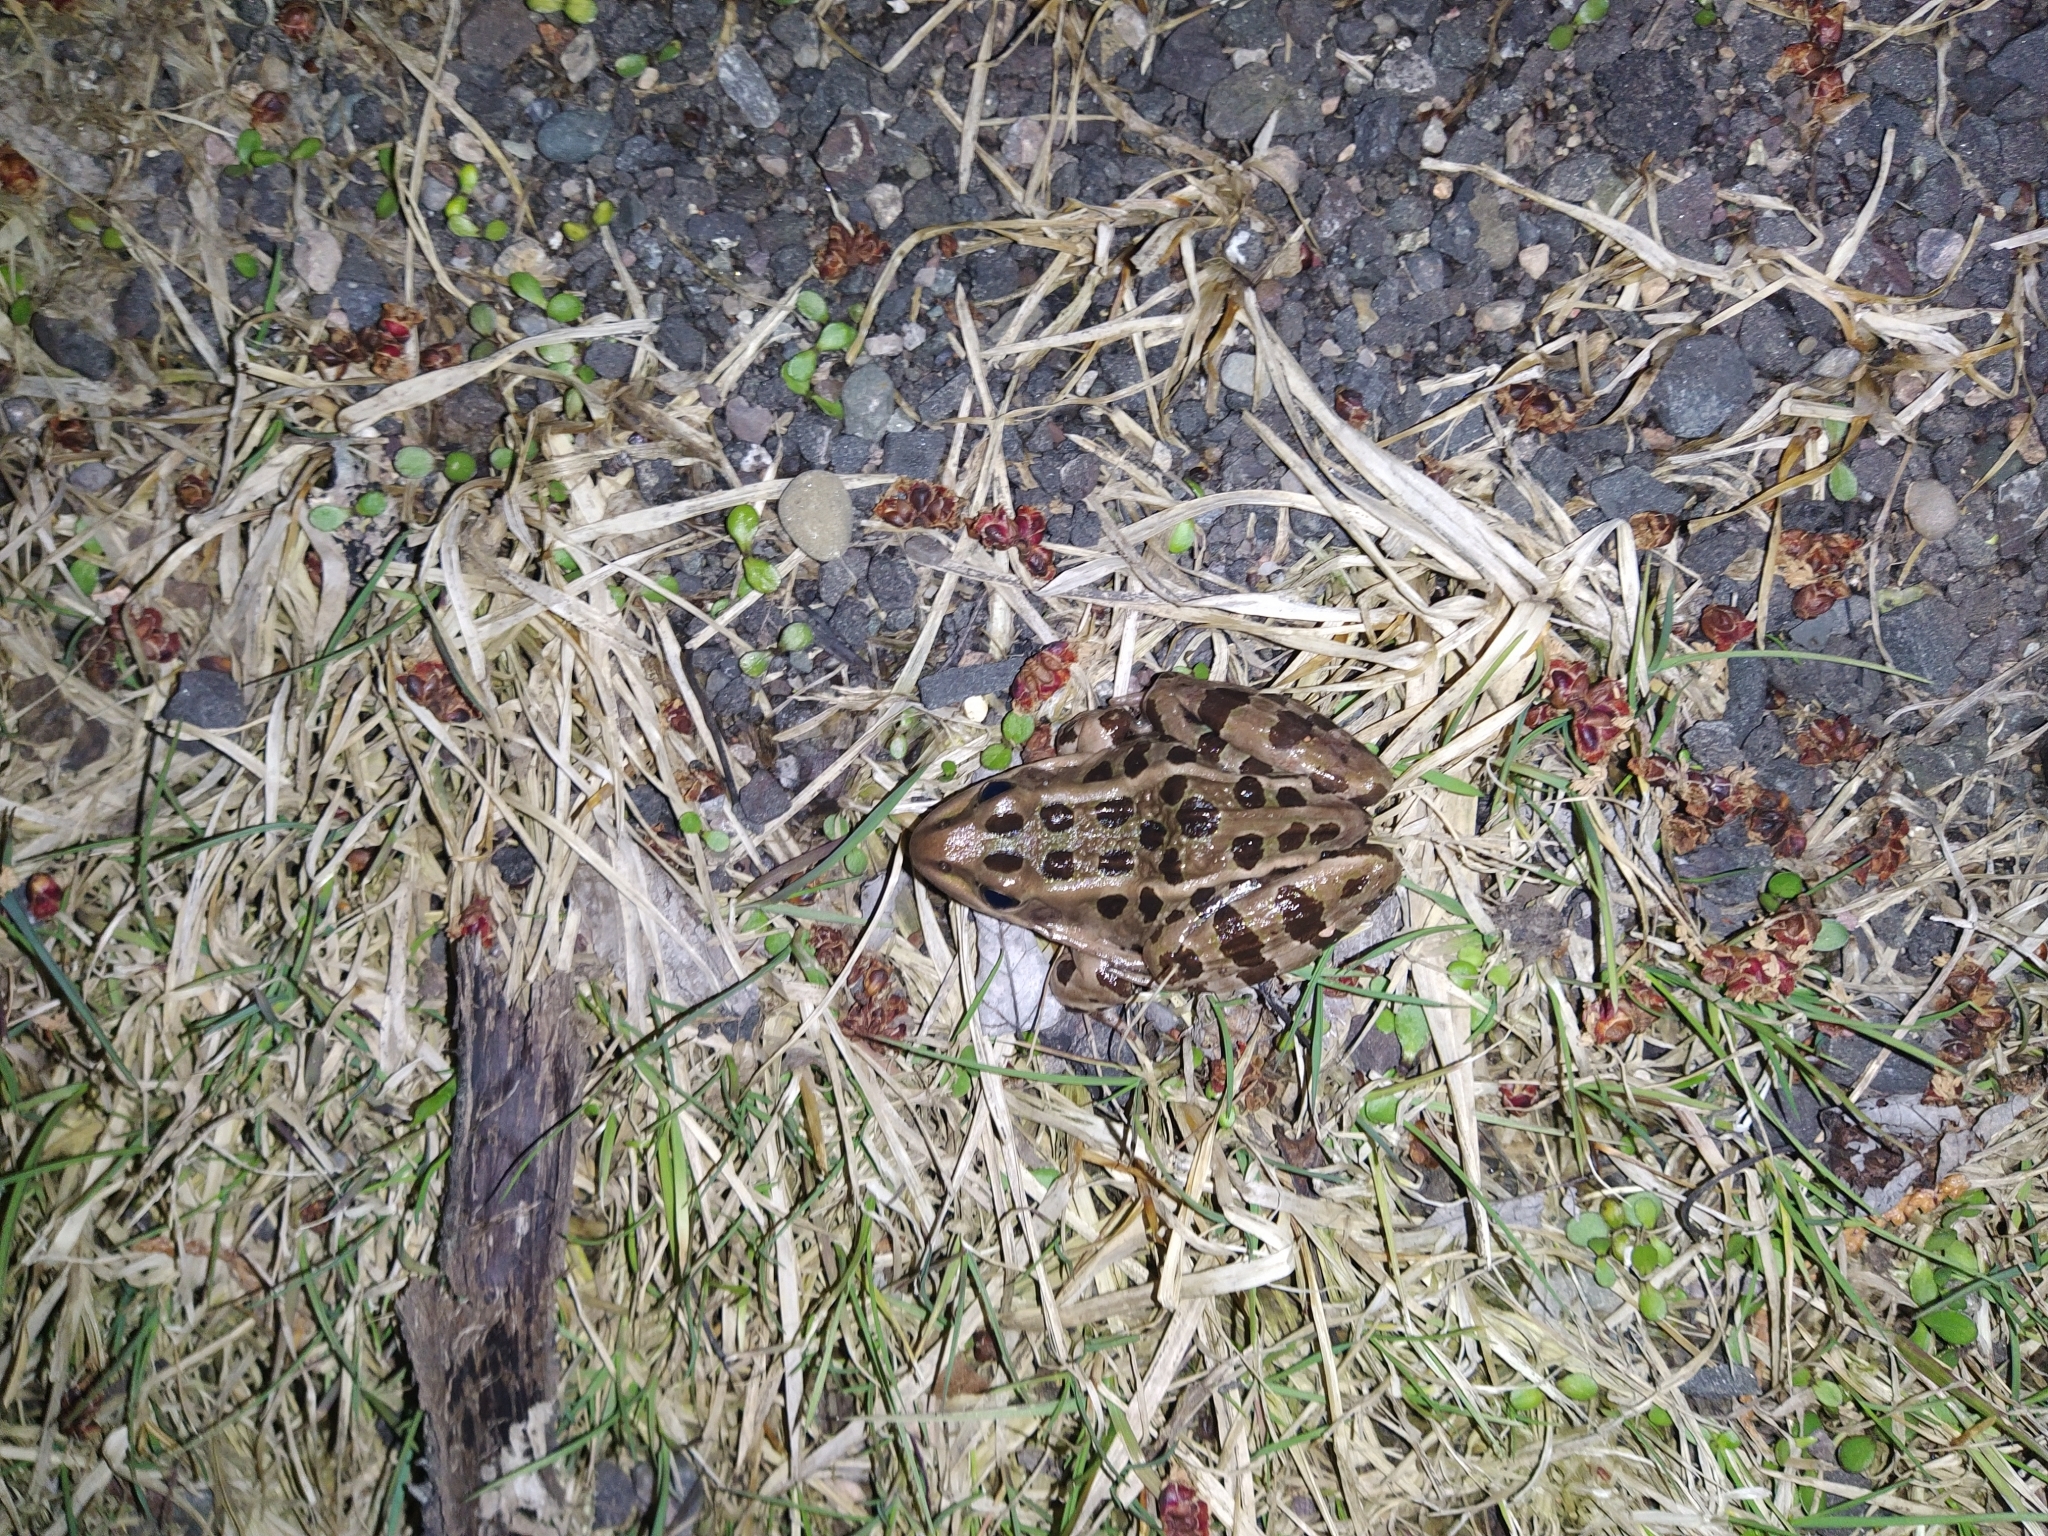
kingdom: Animalia
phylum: Chordata
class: Amphibia
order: Anura
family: Ranidae
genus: Lithobates
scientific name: Lithobates pipiens
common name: Northern leopard frog
